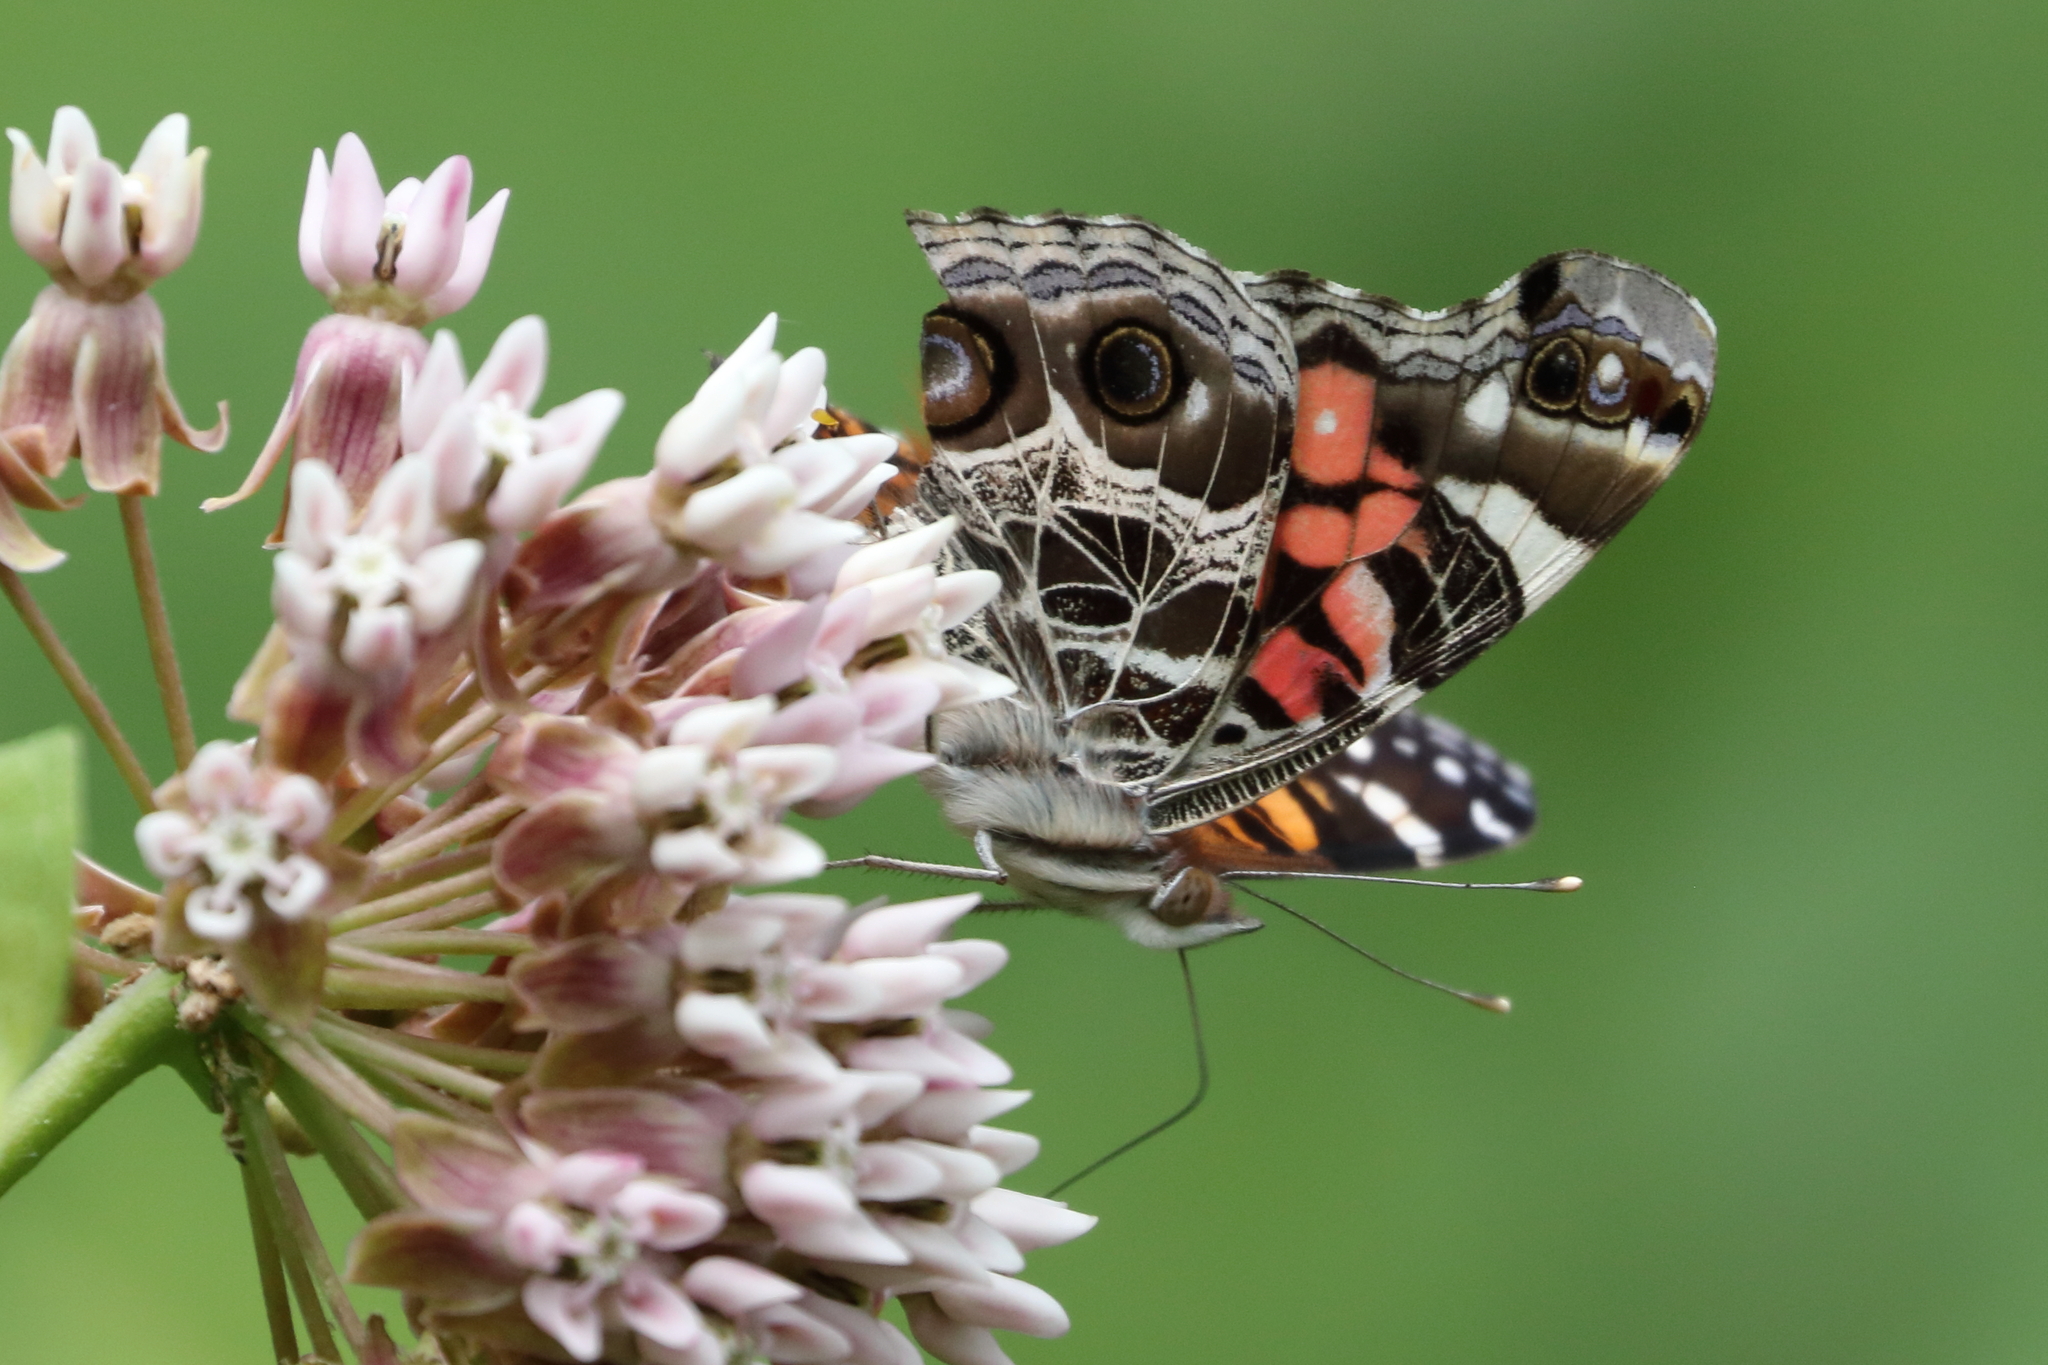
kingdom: Animalia
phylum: Arthropoda
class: Insecta
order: Lepidoptera
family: Nymphalidae
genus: Vanessa
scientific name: Vanessa virginiensis
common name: American lady
